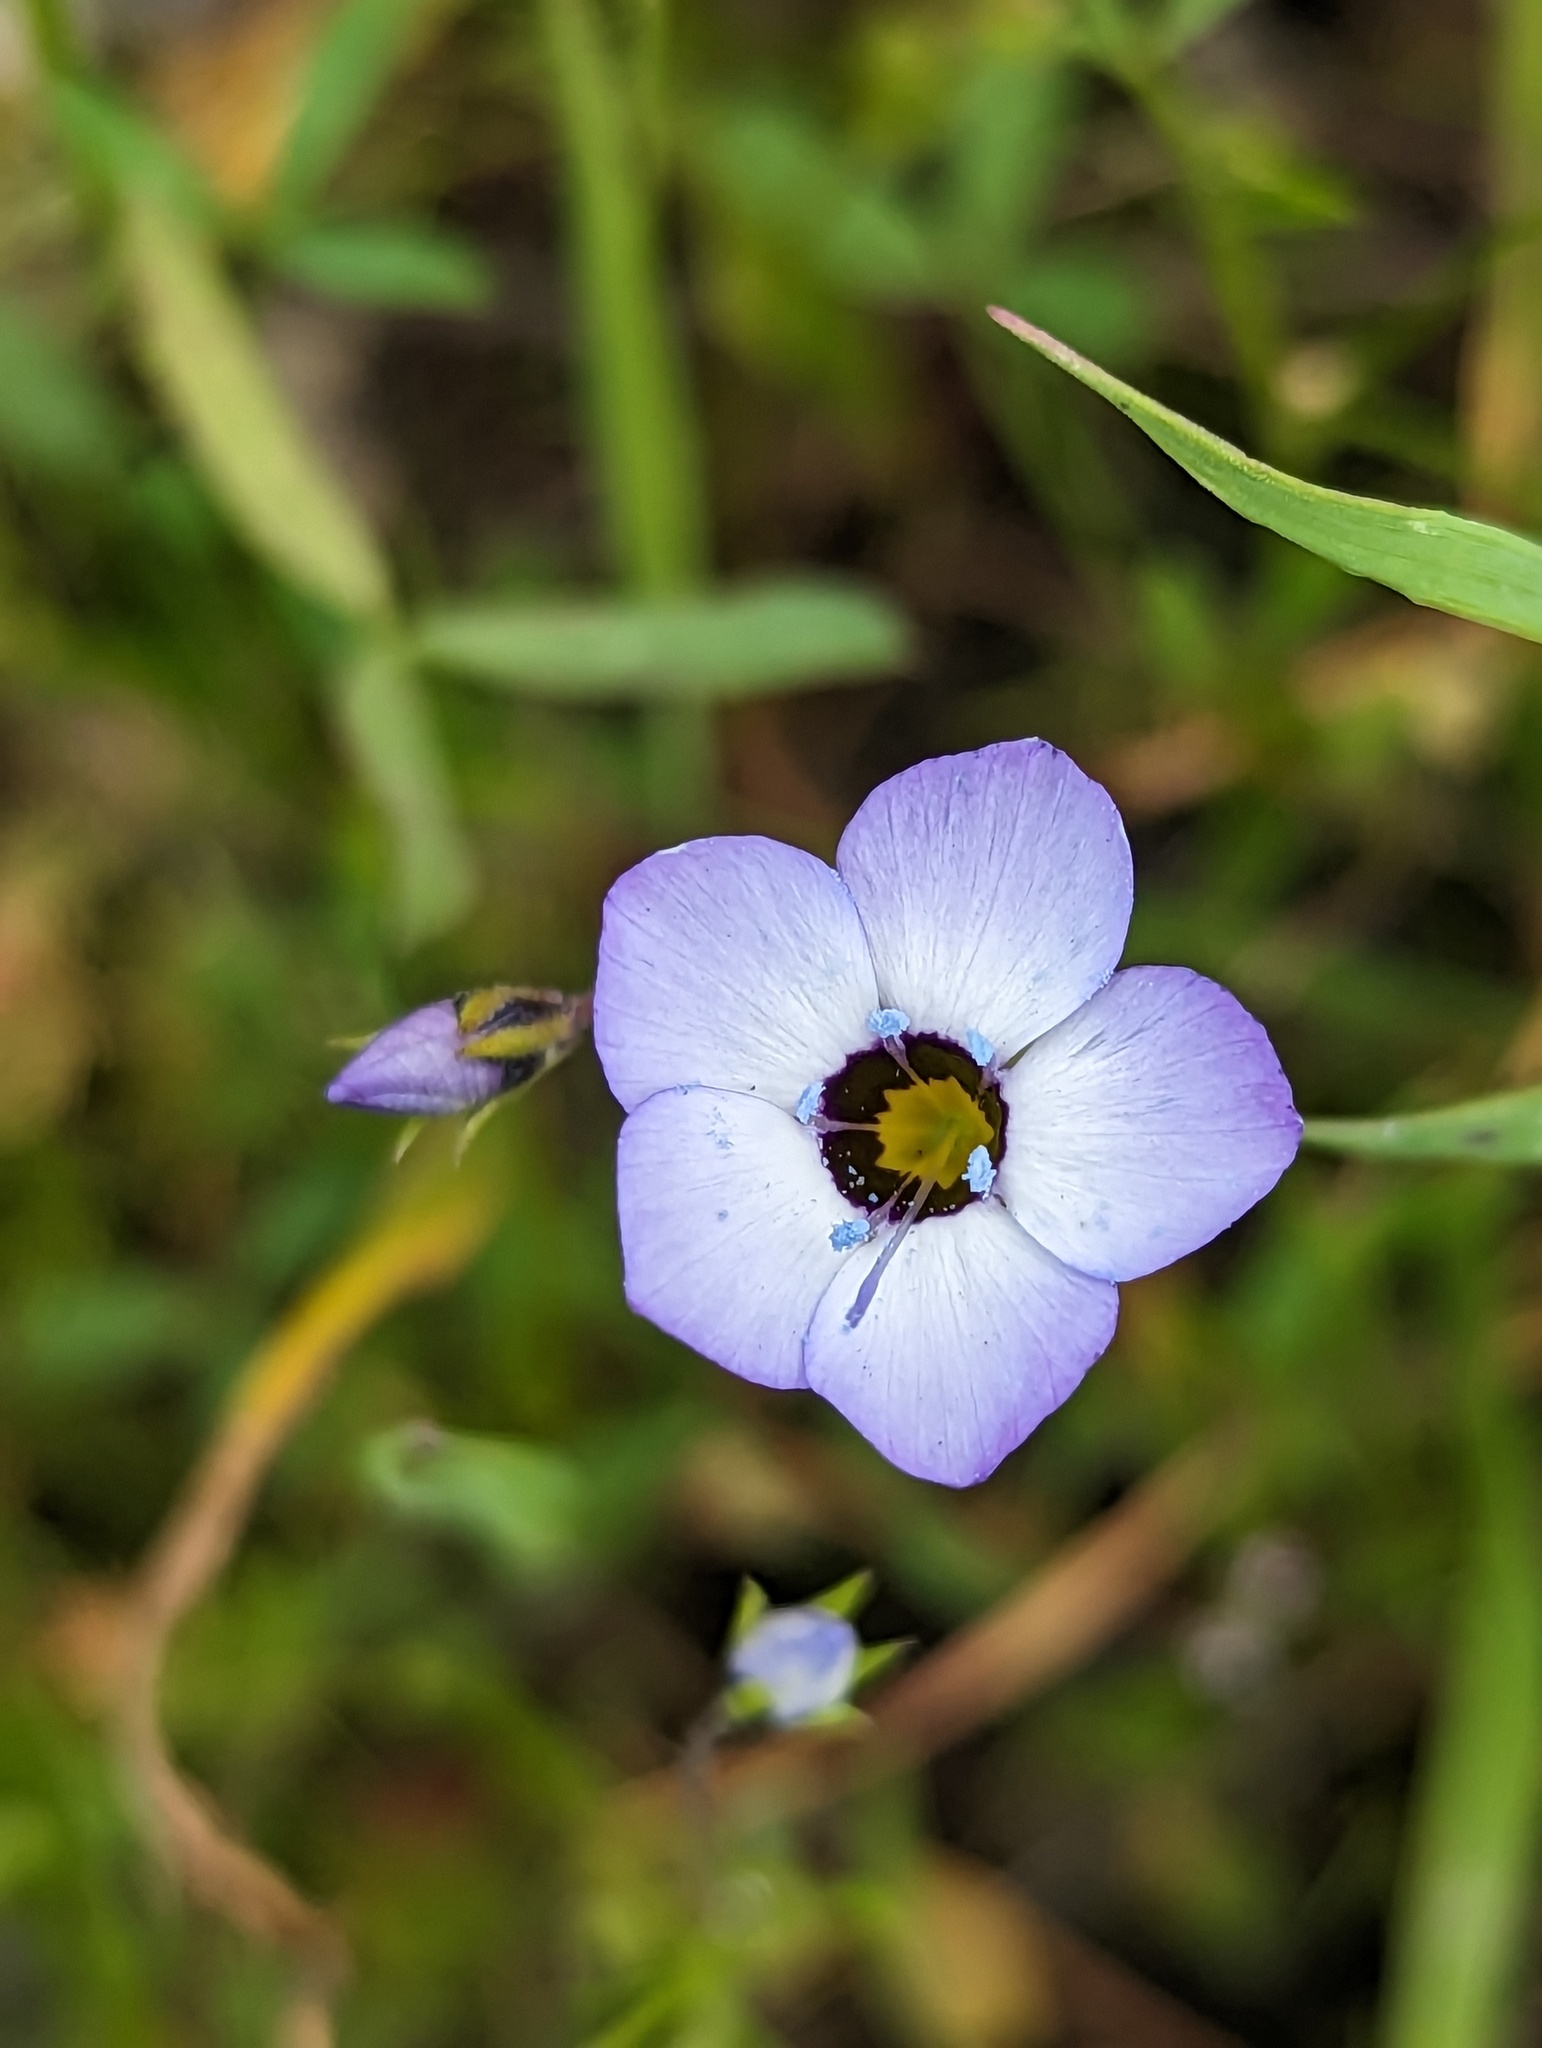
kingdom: Plantae
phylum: Tracheophyta
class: Magnoliopsida
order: Ericales
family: Polemoniaceae
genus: Gilia
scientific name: Gilia tricolor
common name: Bird's-eyes
